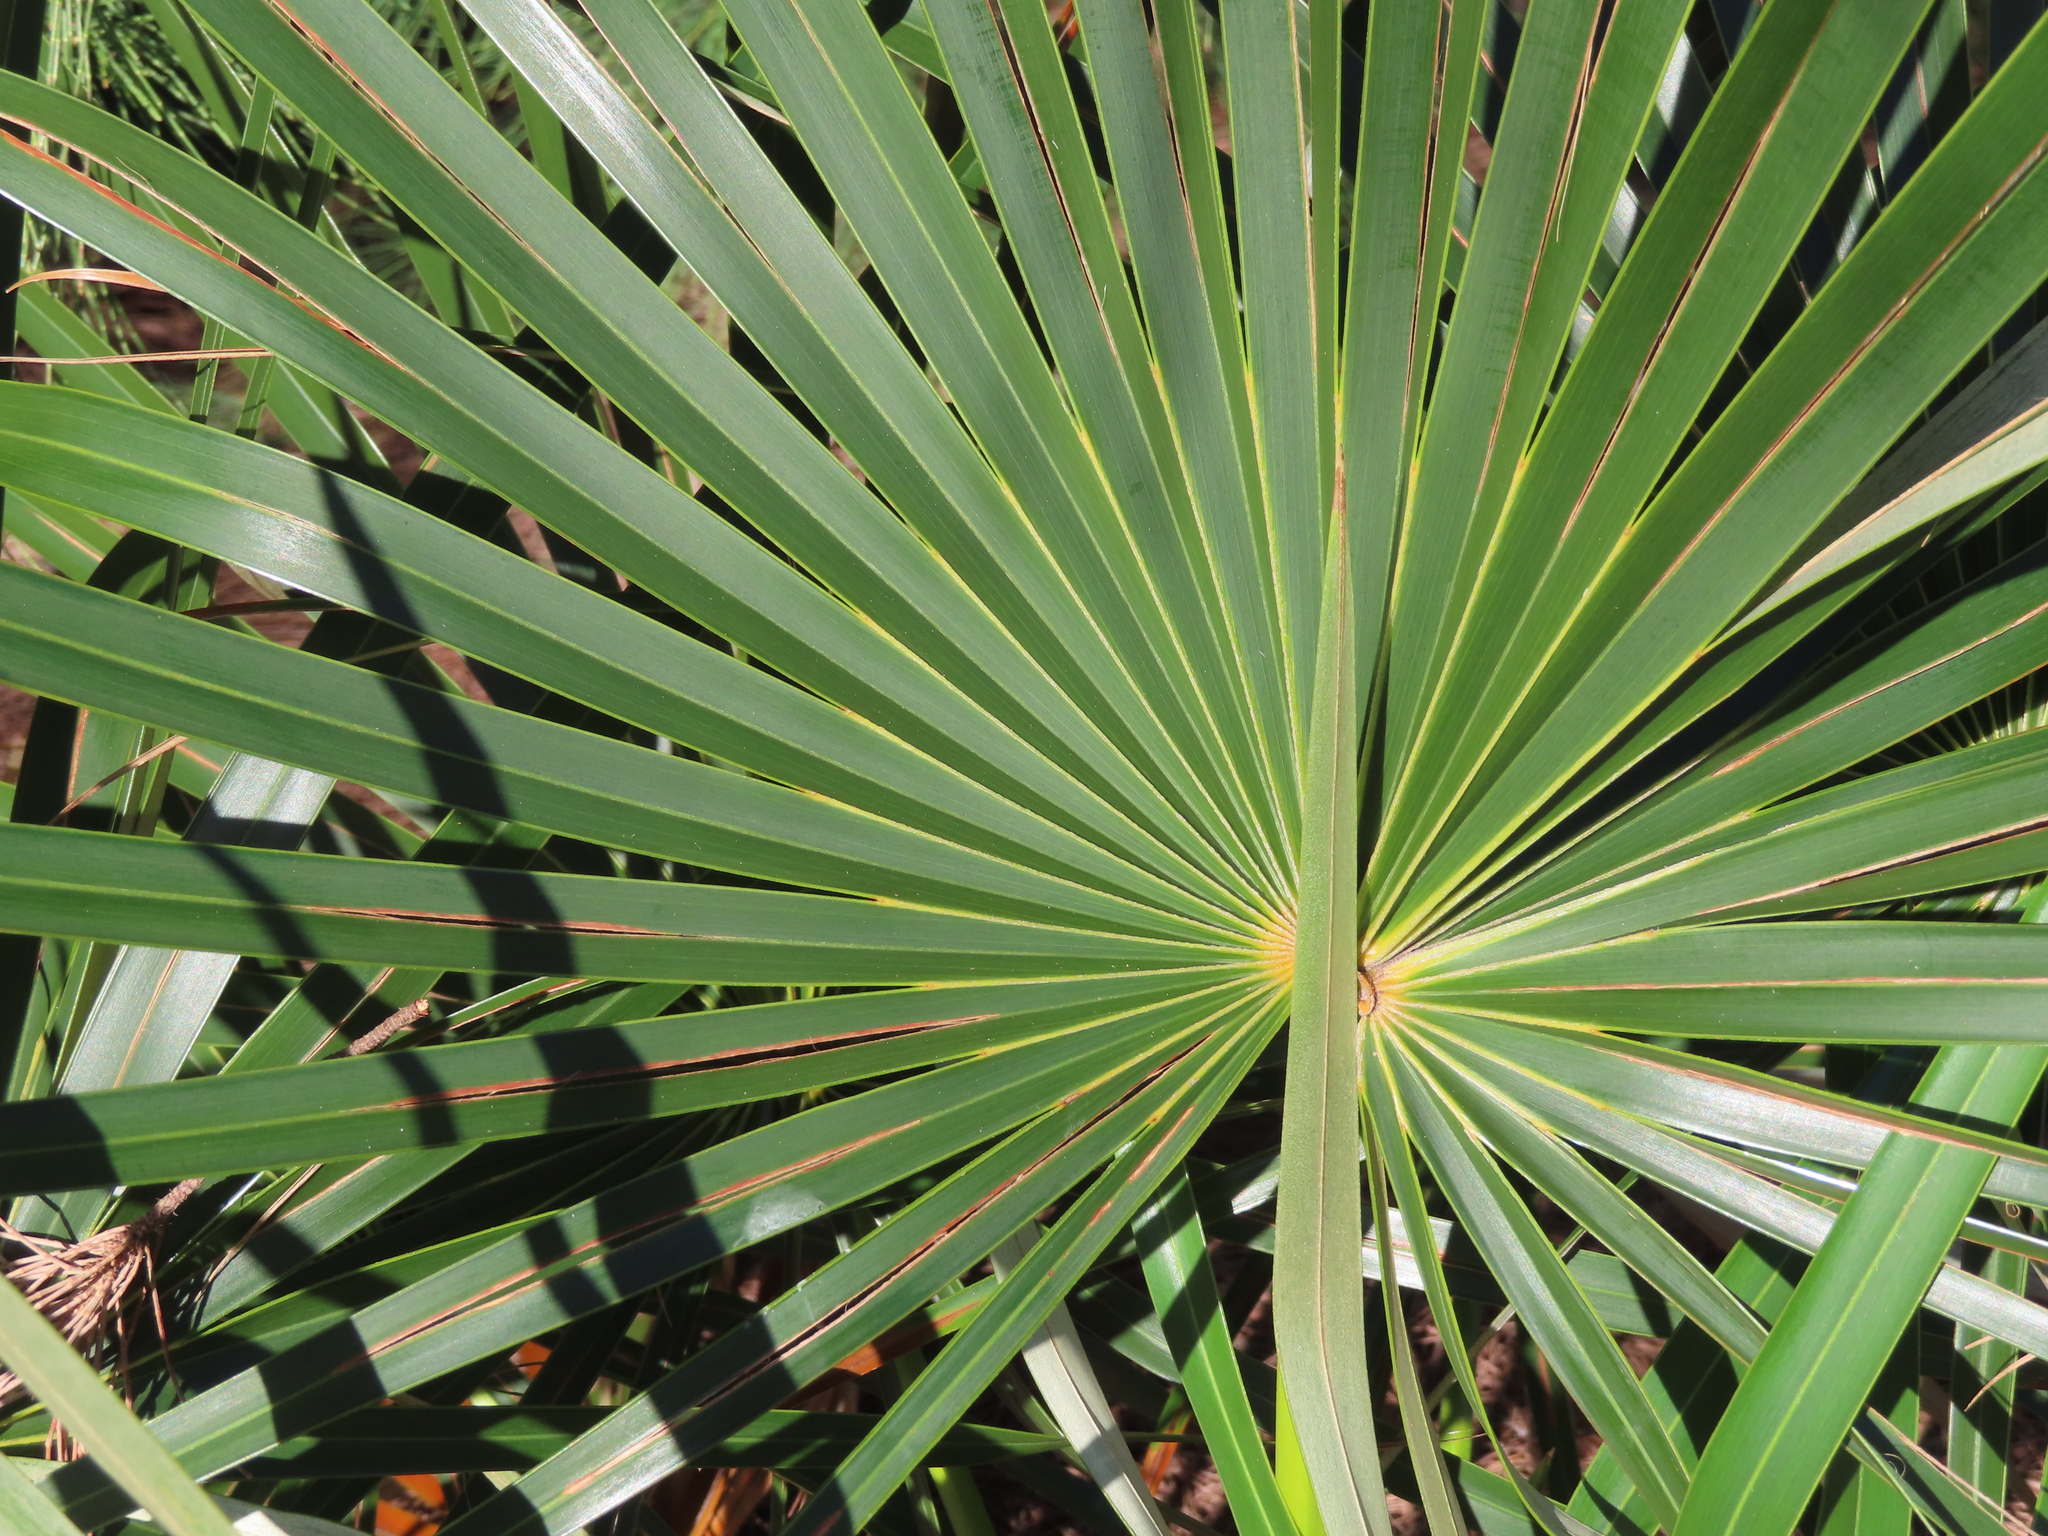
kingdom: Plantae
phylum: Tracheophyta
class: Liliopsida
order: Arecales
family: Arecaceae
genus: Coccothrinax
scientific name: Coccothrinax argentata
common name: Florida silver palm
